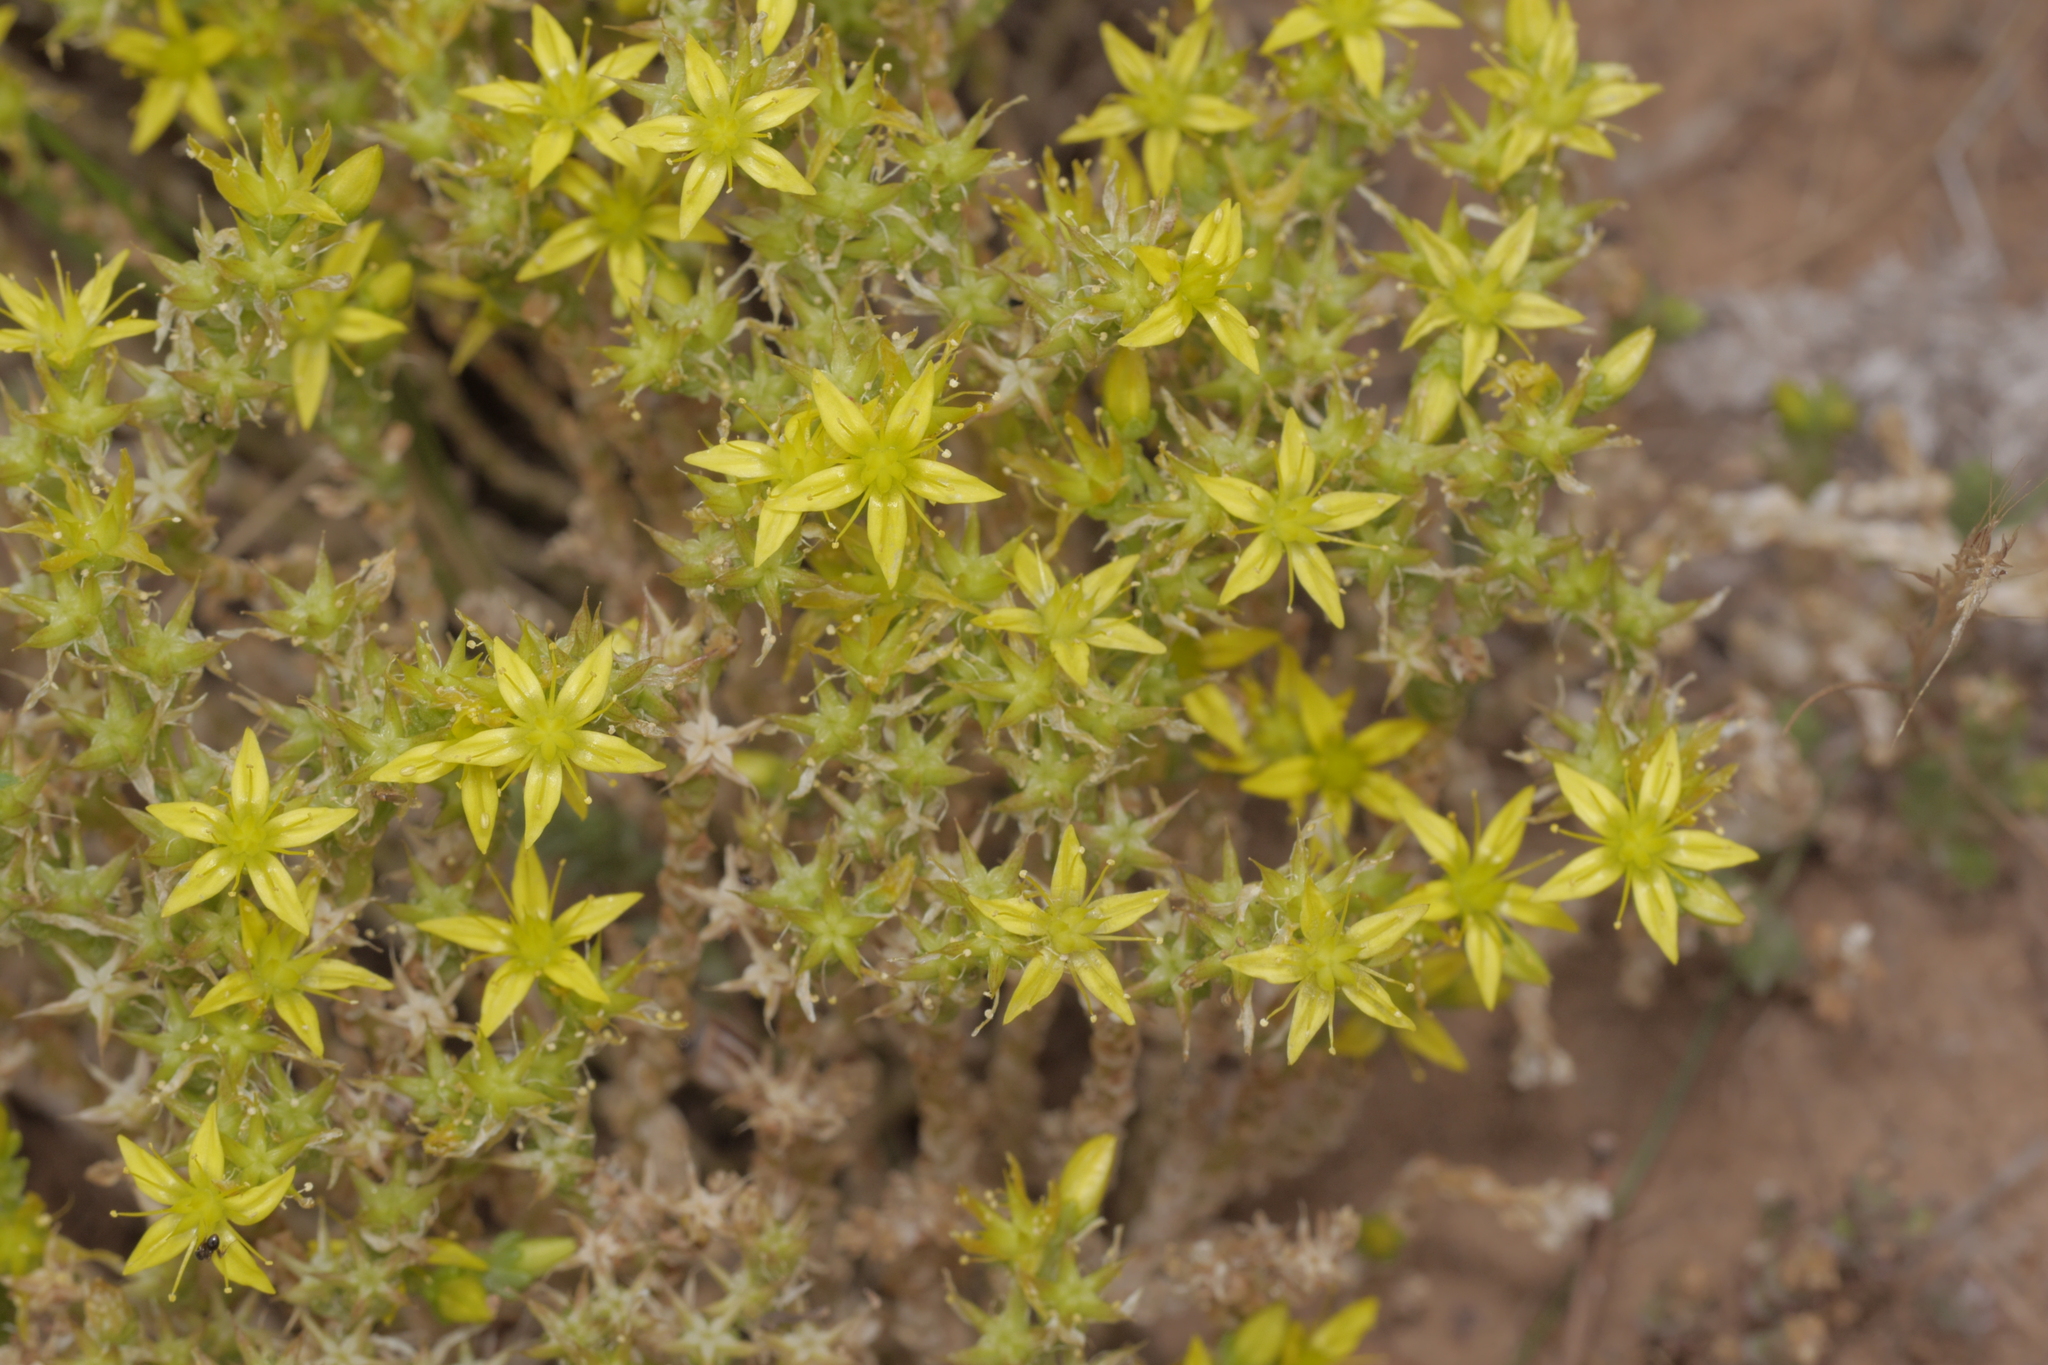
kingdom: Plantae
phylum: Tracheophyta
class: Magnoliopsida
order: Saxifragales
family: Crassulaceae
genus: Sedum
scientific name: Sedum acre
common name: Biting stonecrop
